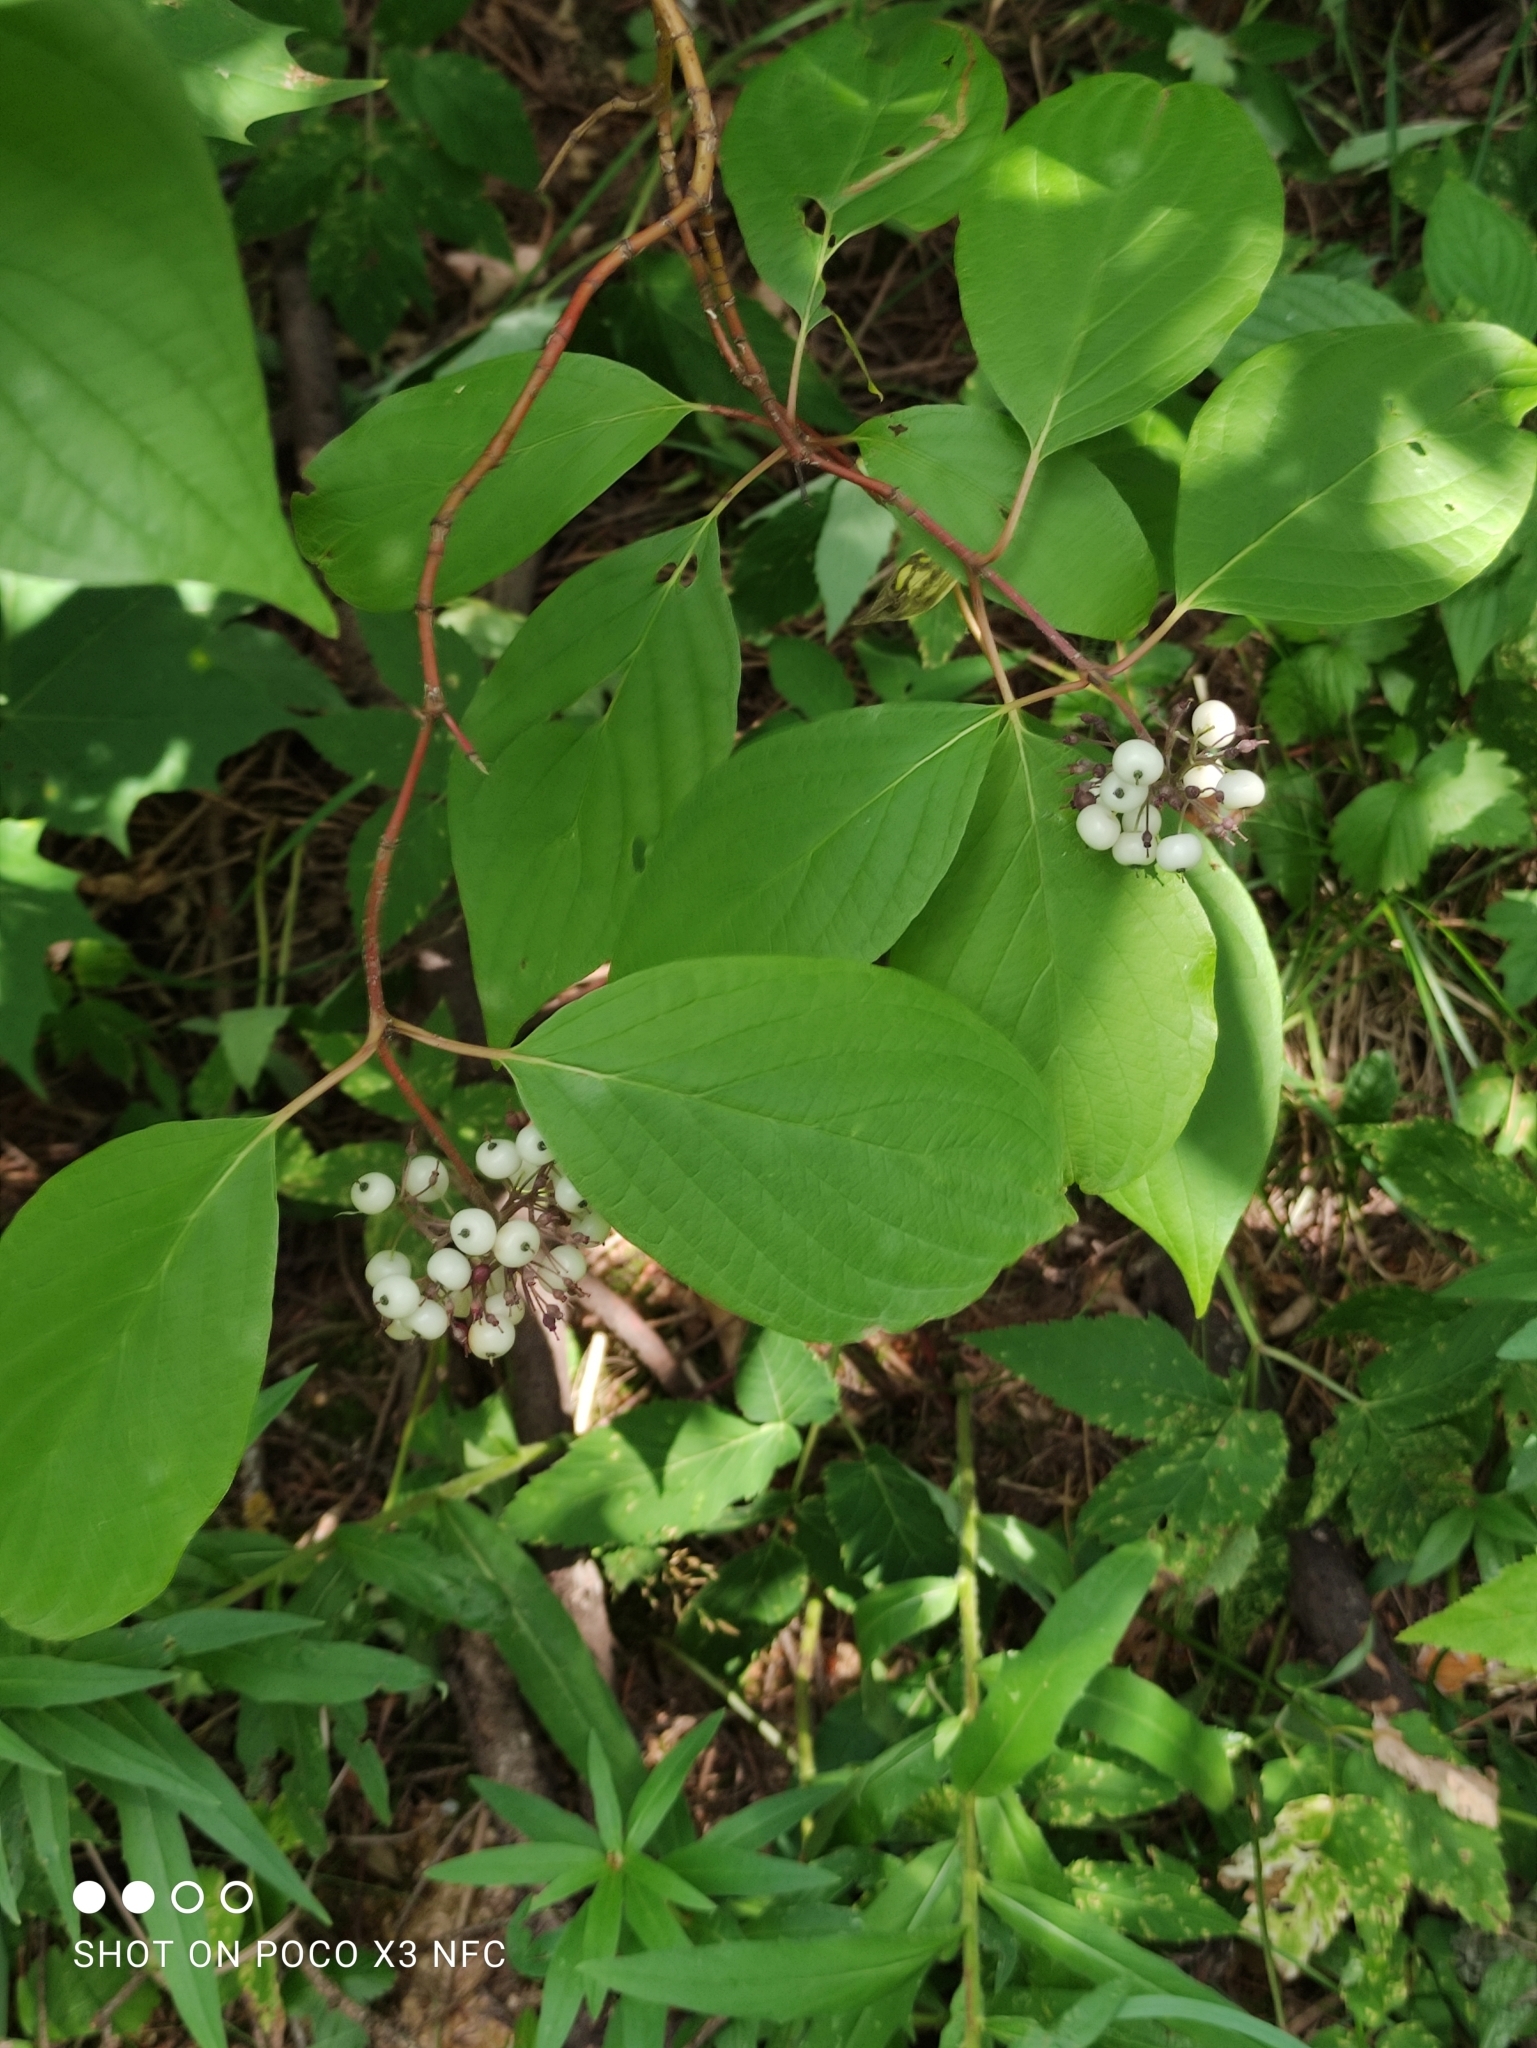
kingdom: Plantae
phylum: Tracheophyta
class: Magnoliopsida
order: Cornales
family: Cornaceae
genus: Cornus
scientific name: Cornus alba
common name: White dogwood
